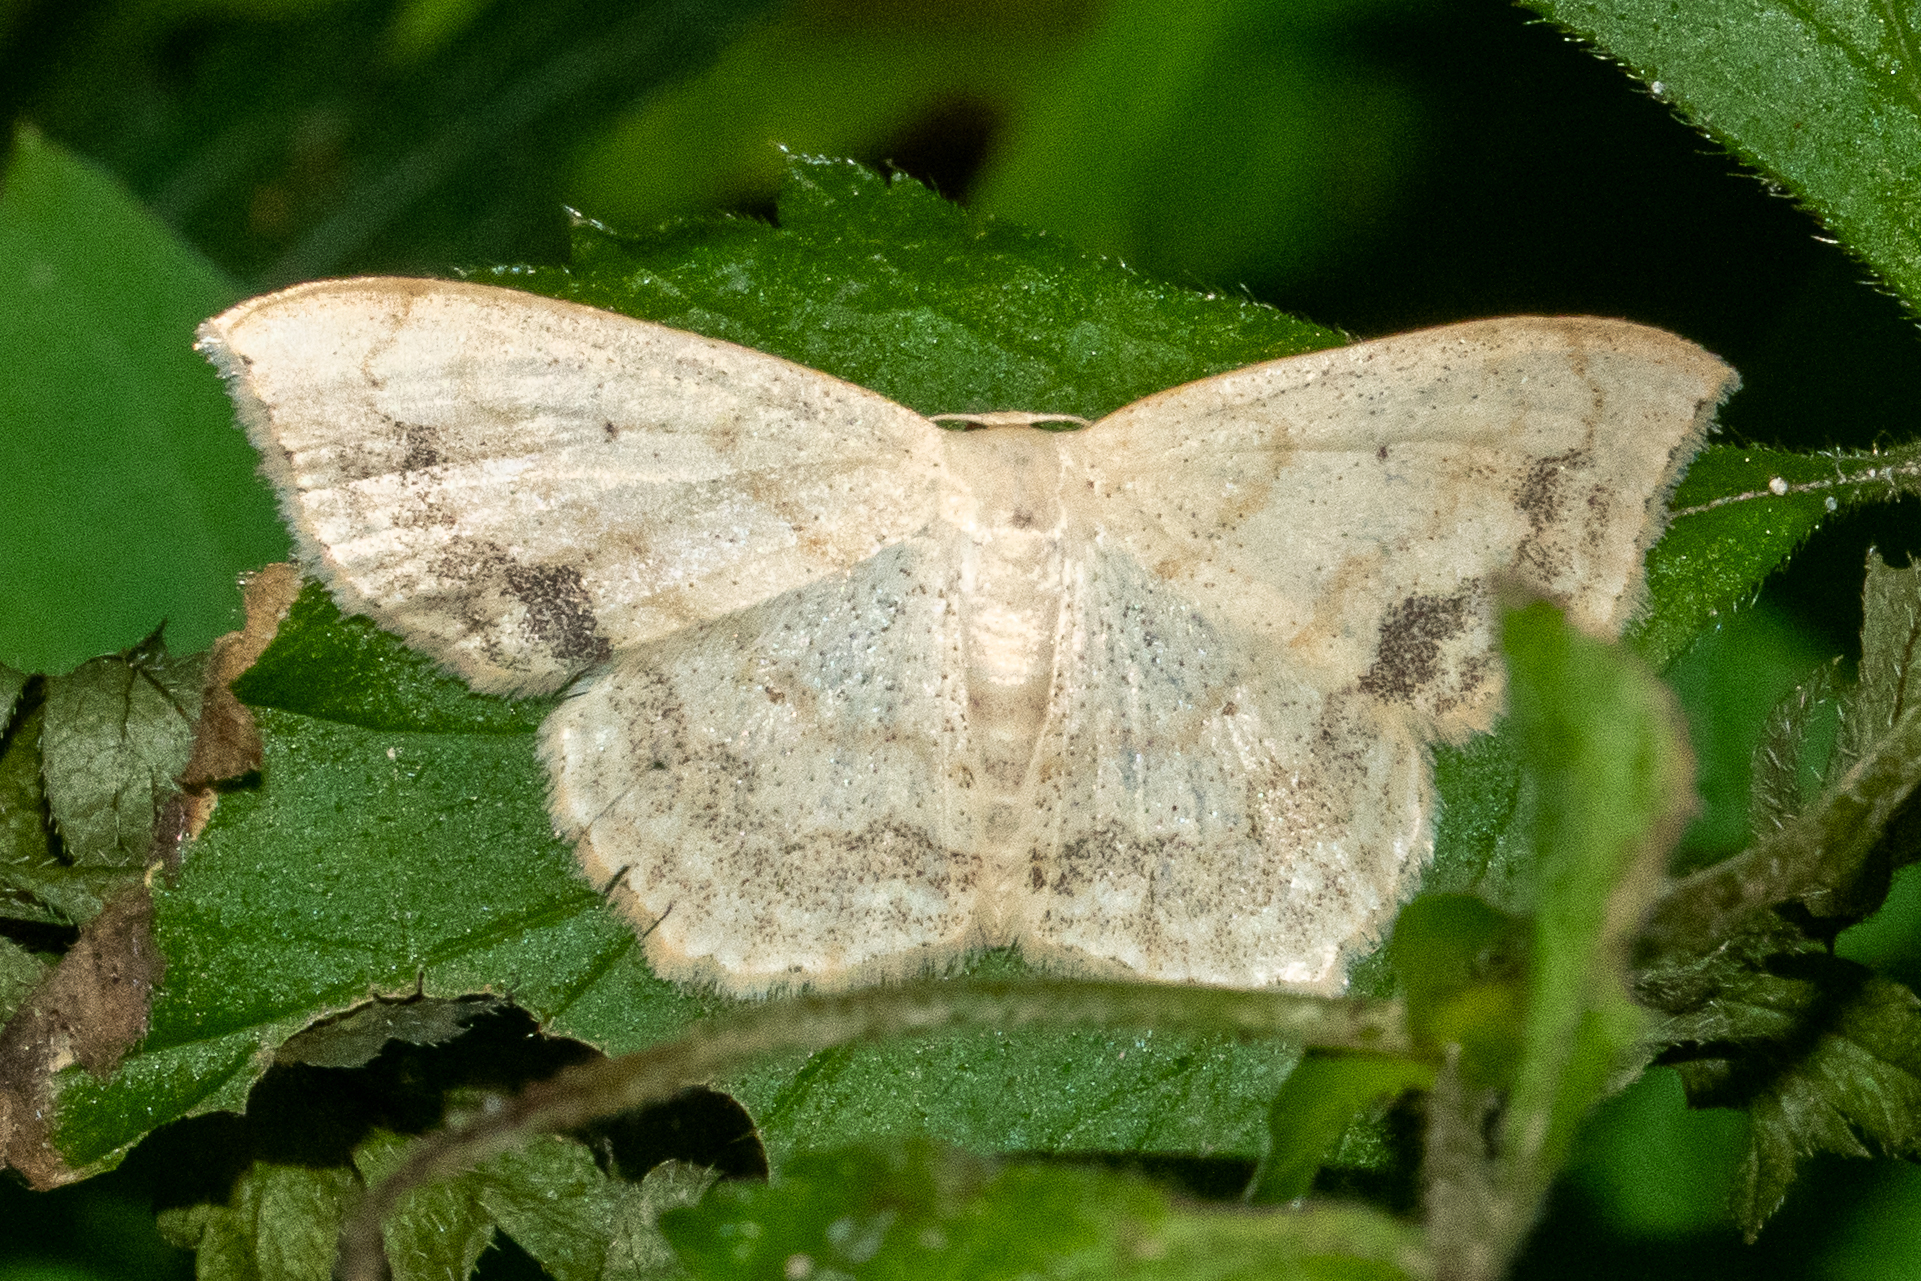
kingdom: Animalia
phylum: Arthropoda
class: Insecta
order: Lepidoptera
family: Geometridae
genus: Scopula
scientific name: Scopula limboundata
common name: Large lace border
